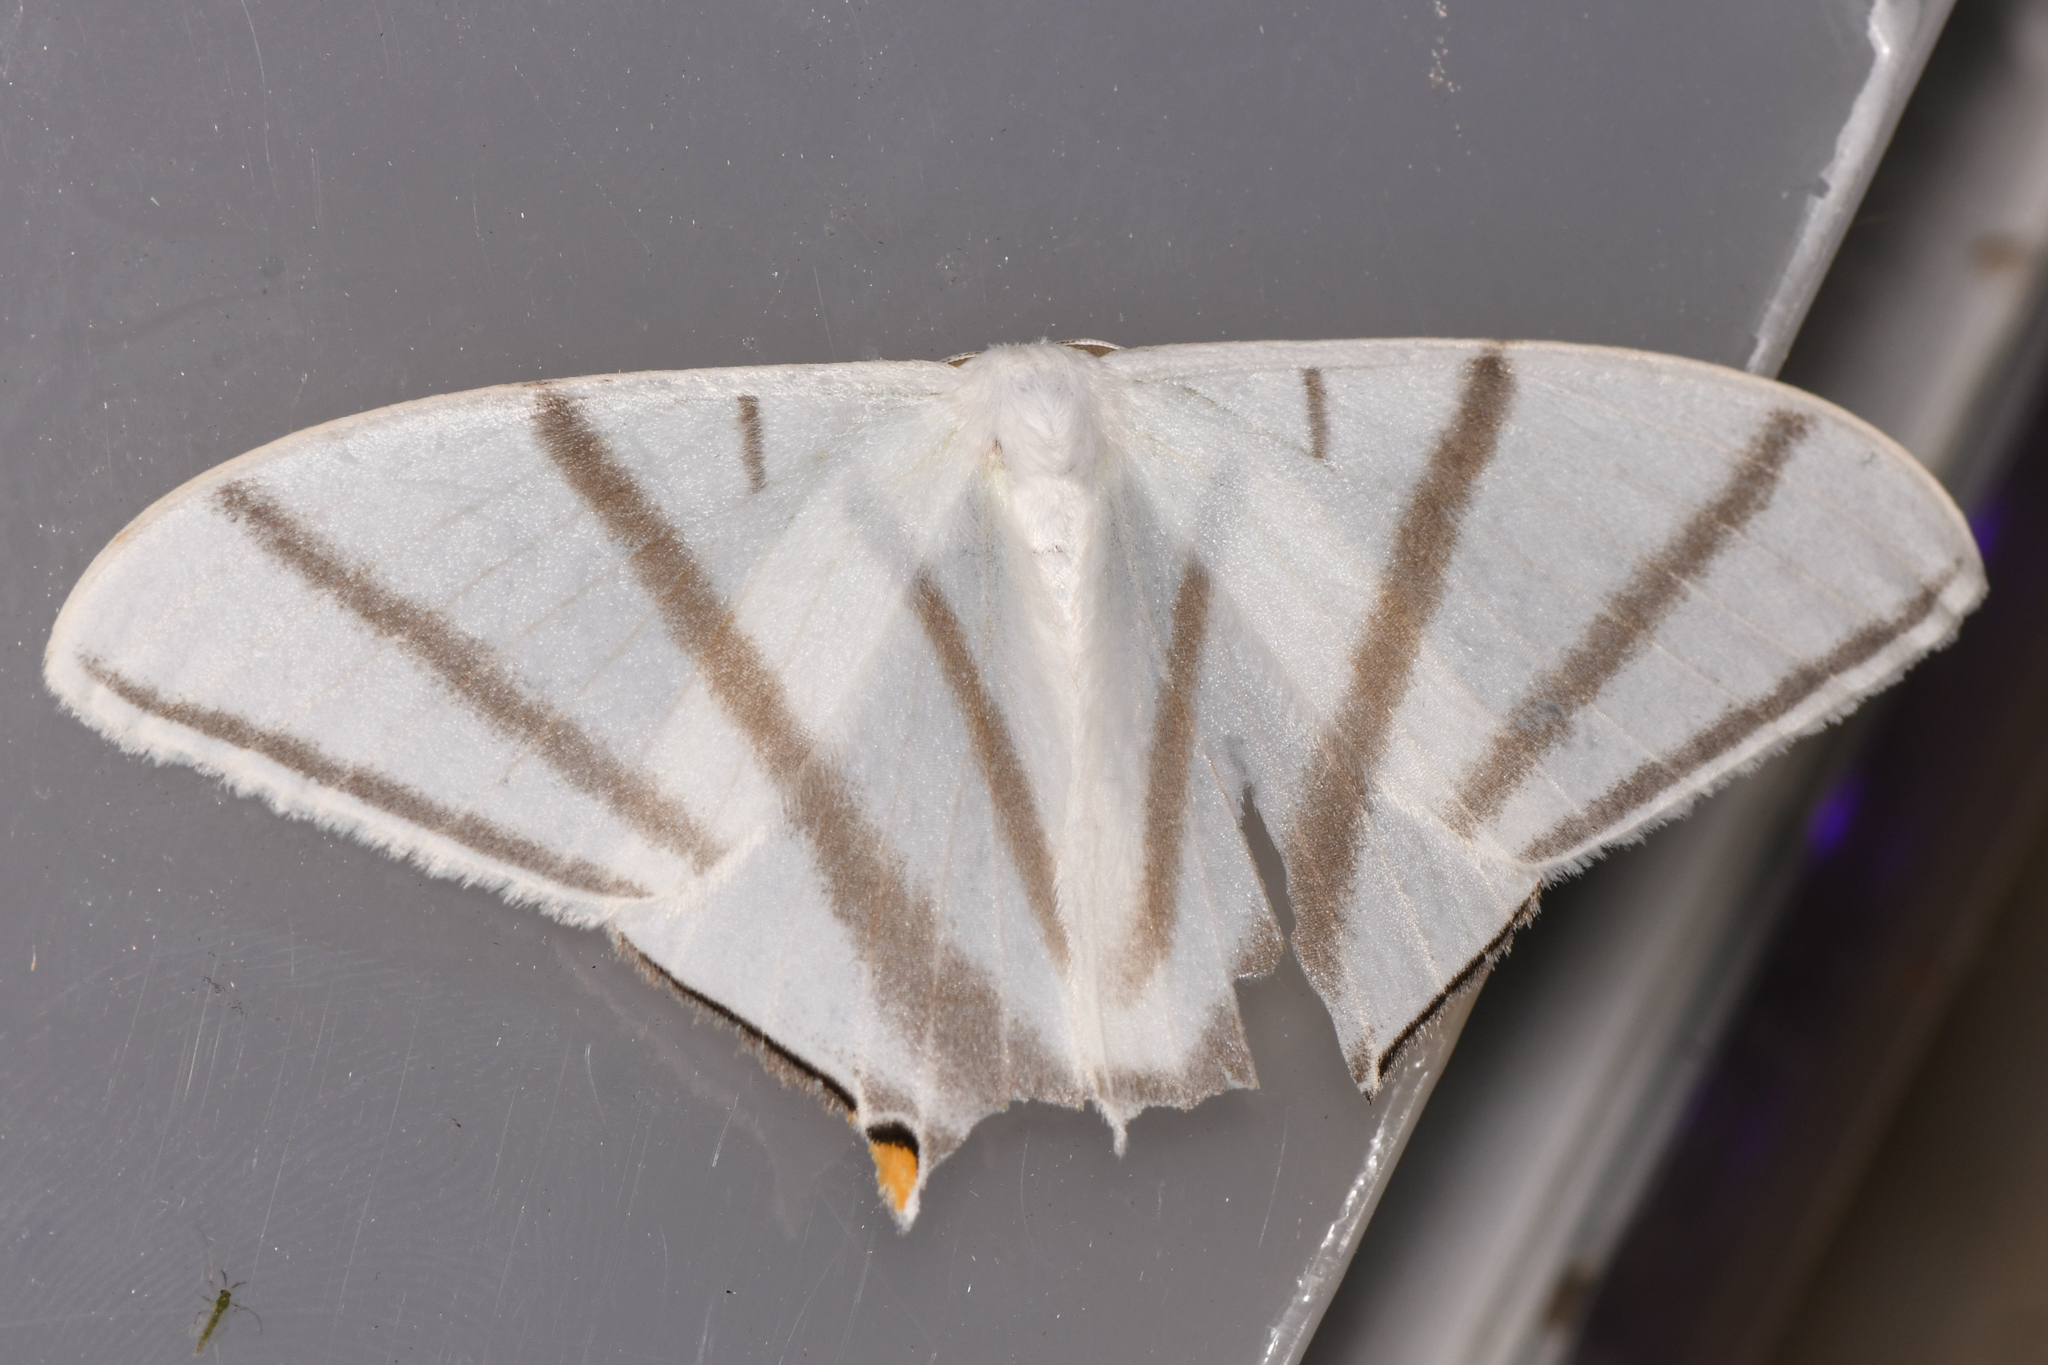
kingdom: Animalia
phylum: Arthropoda
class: Insecta
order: Lepidoptera
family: Saturniidae
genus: Therinia
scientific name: Therinia transversaria
